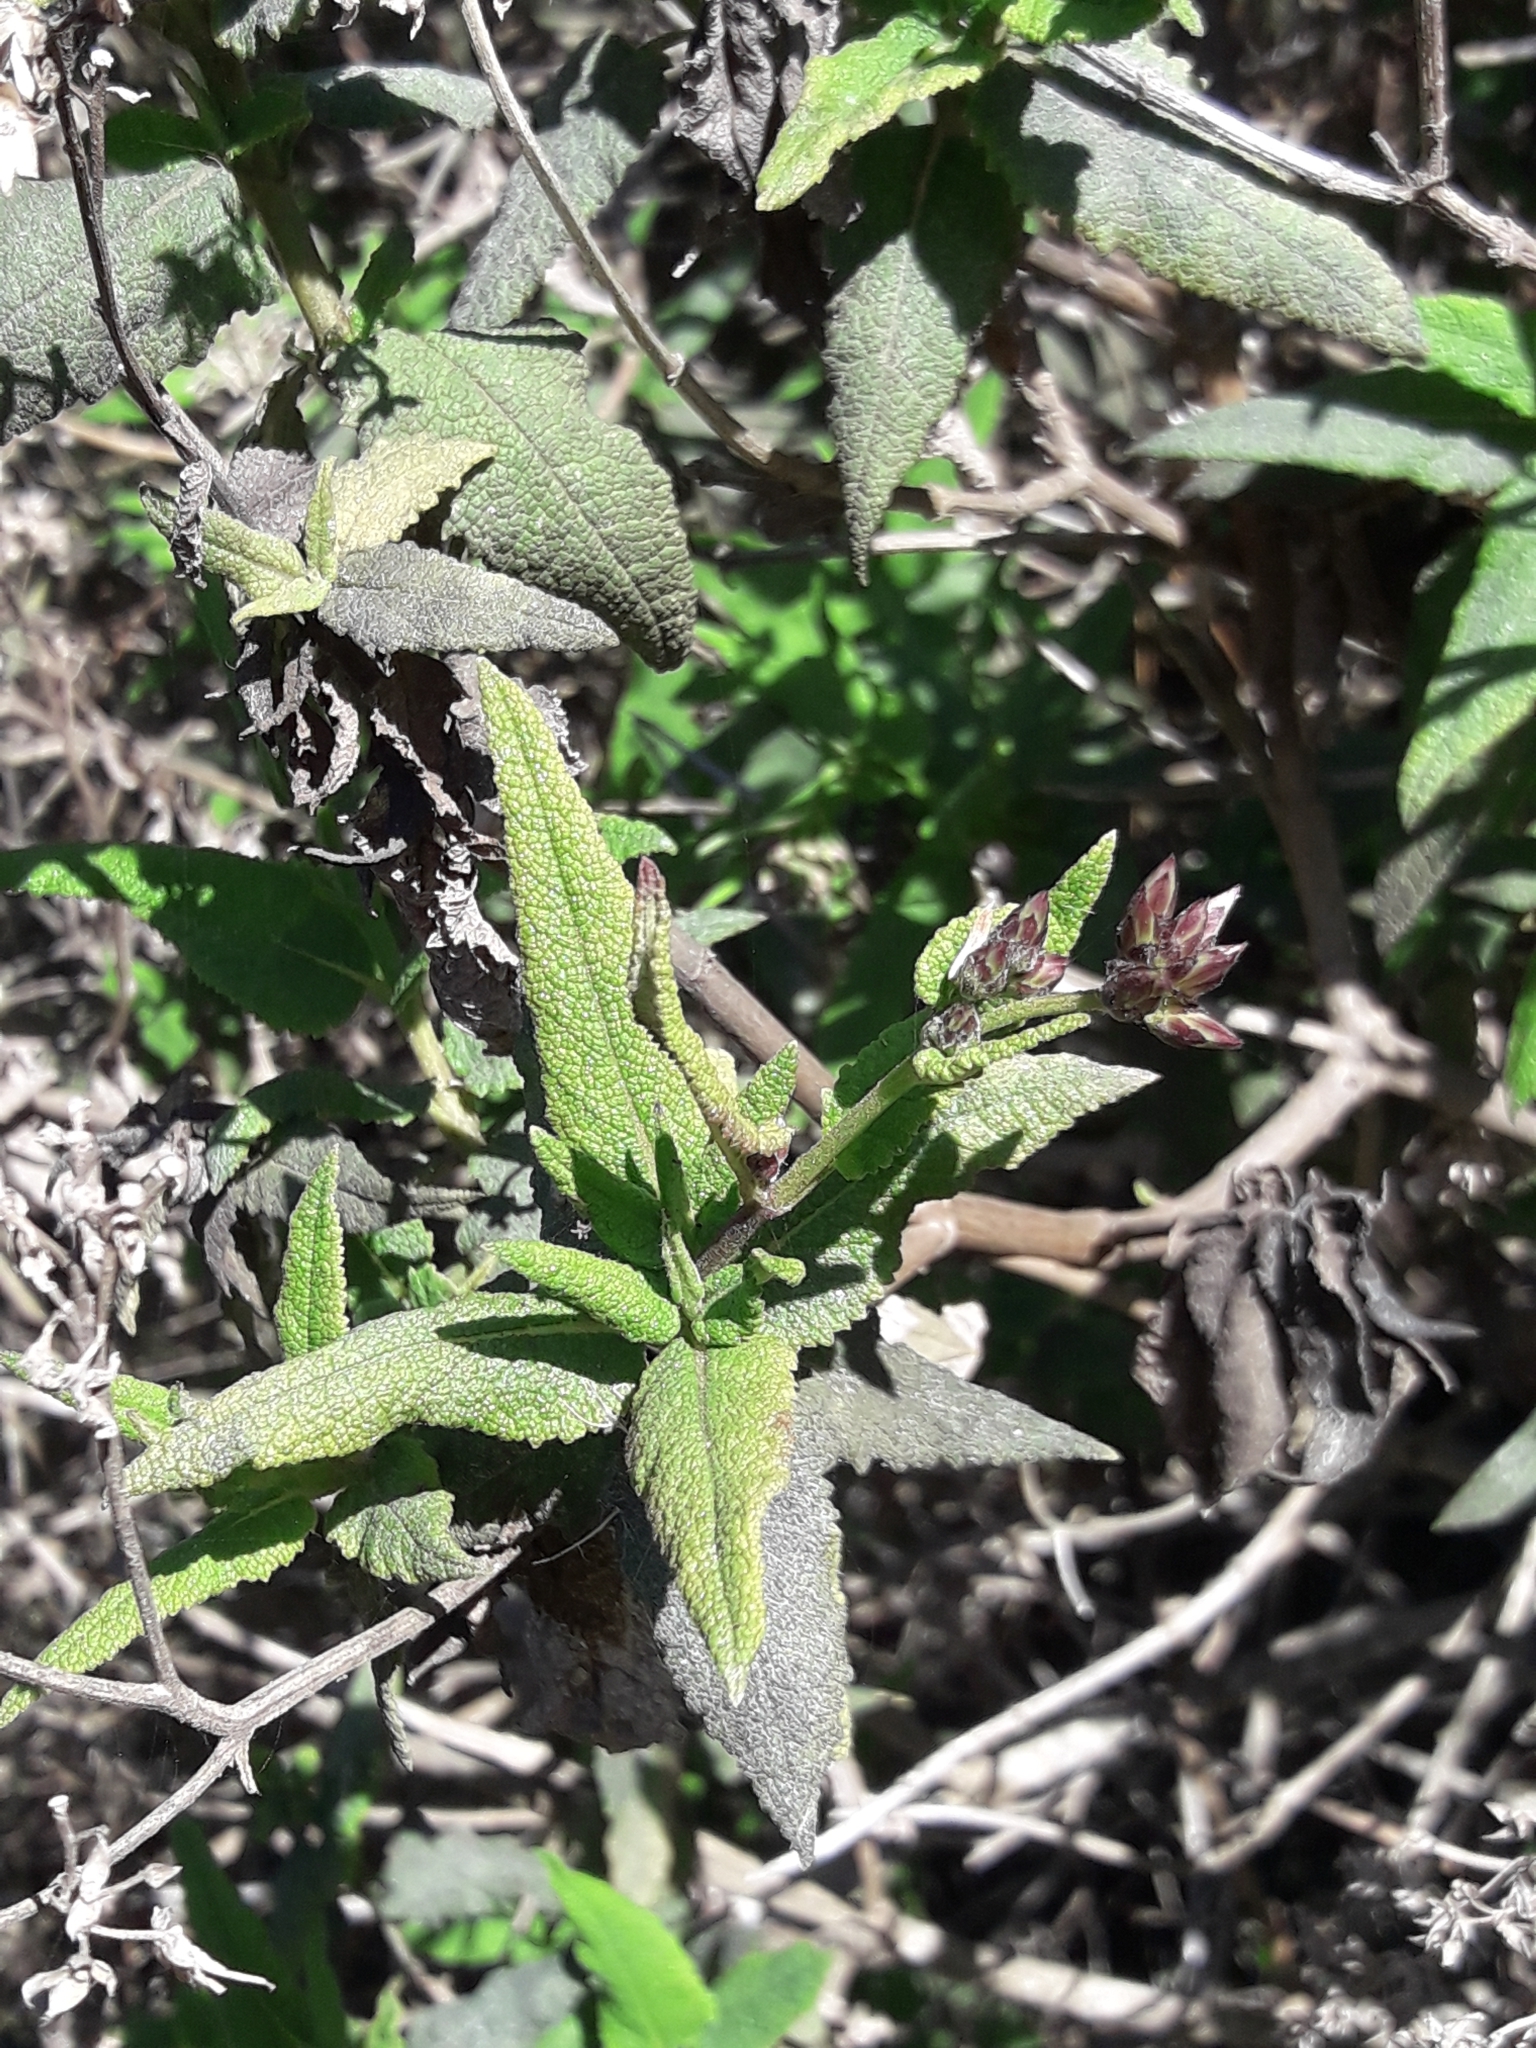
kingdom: Plantae
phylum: Tracheophyta
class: Magnoliopsida
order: Asterales
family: Asteraceae
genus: Aristeguietia
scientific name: Aristeguietia salvia
